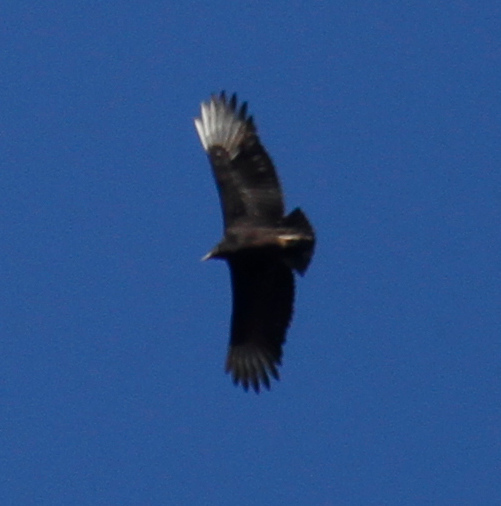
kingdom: Animalia
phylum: Chordata
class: Aves
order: Accipitriformes
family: Cathartidae
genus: Coragyps
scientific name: Coragyps atratus
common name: Black vulture
